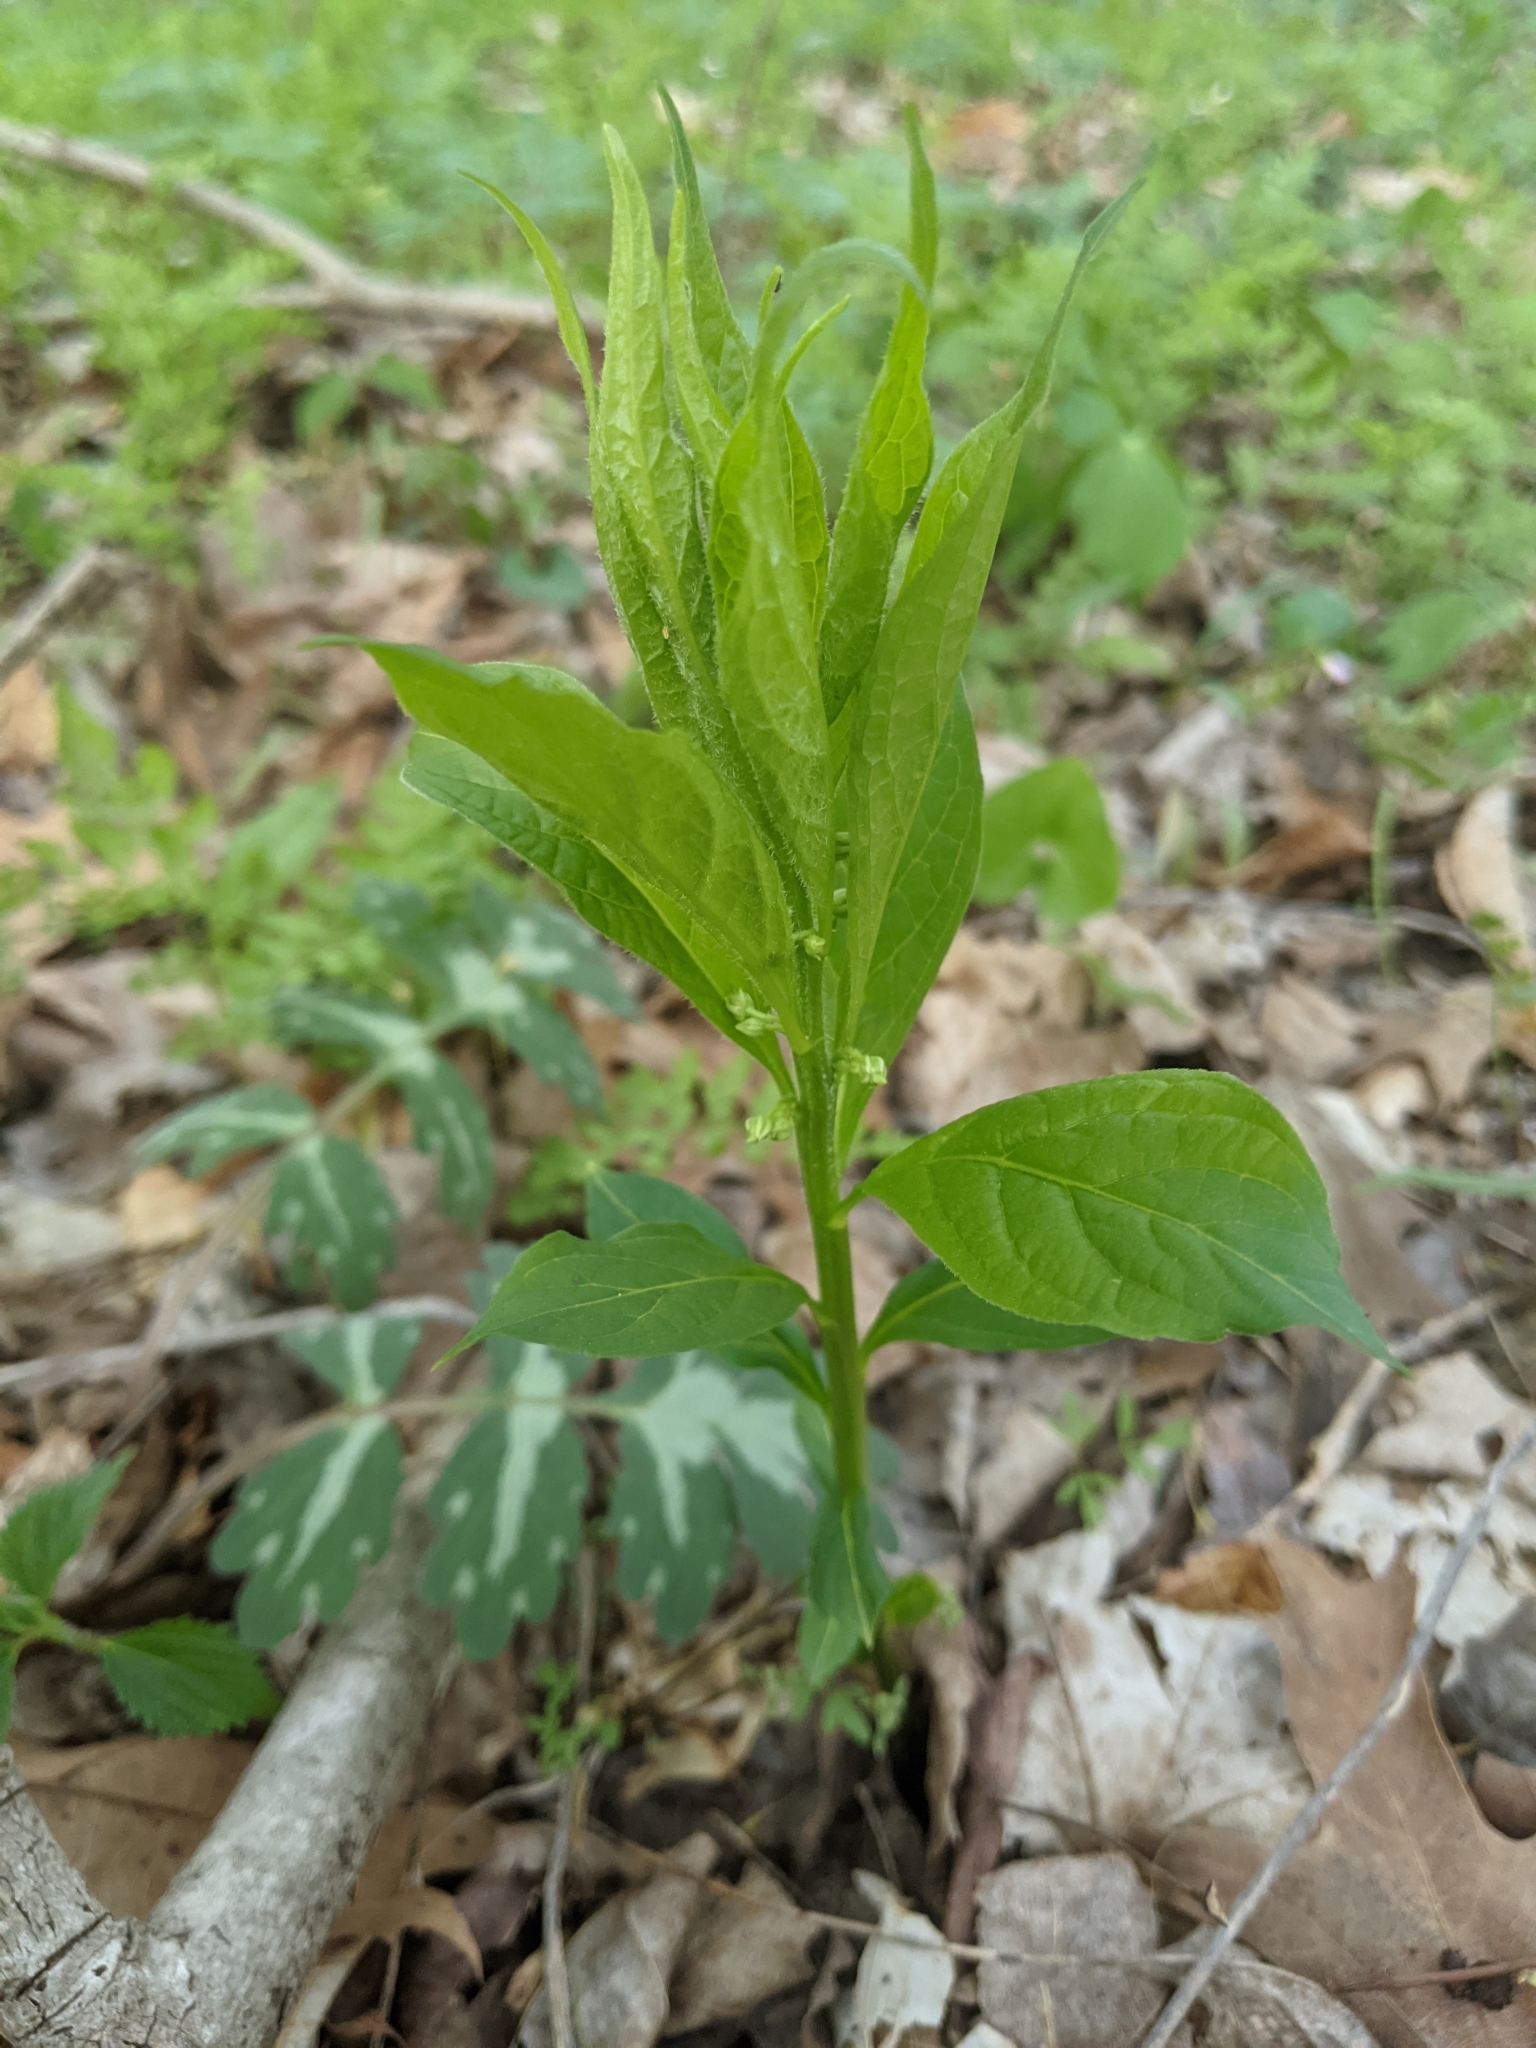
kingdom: Plantae
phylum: Tracheophyta
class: Magnoliopsida
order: Malpighiales
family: Violaceae
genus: Cubelium
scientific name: Cubelium concolor
